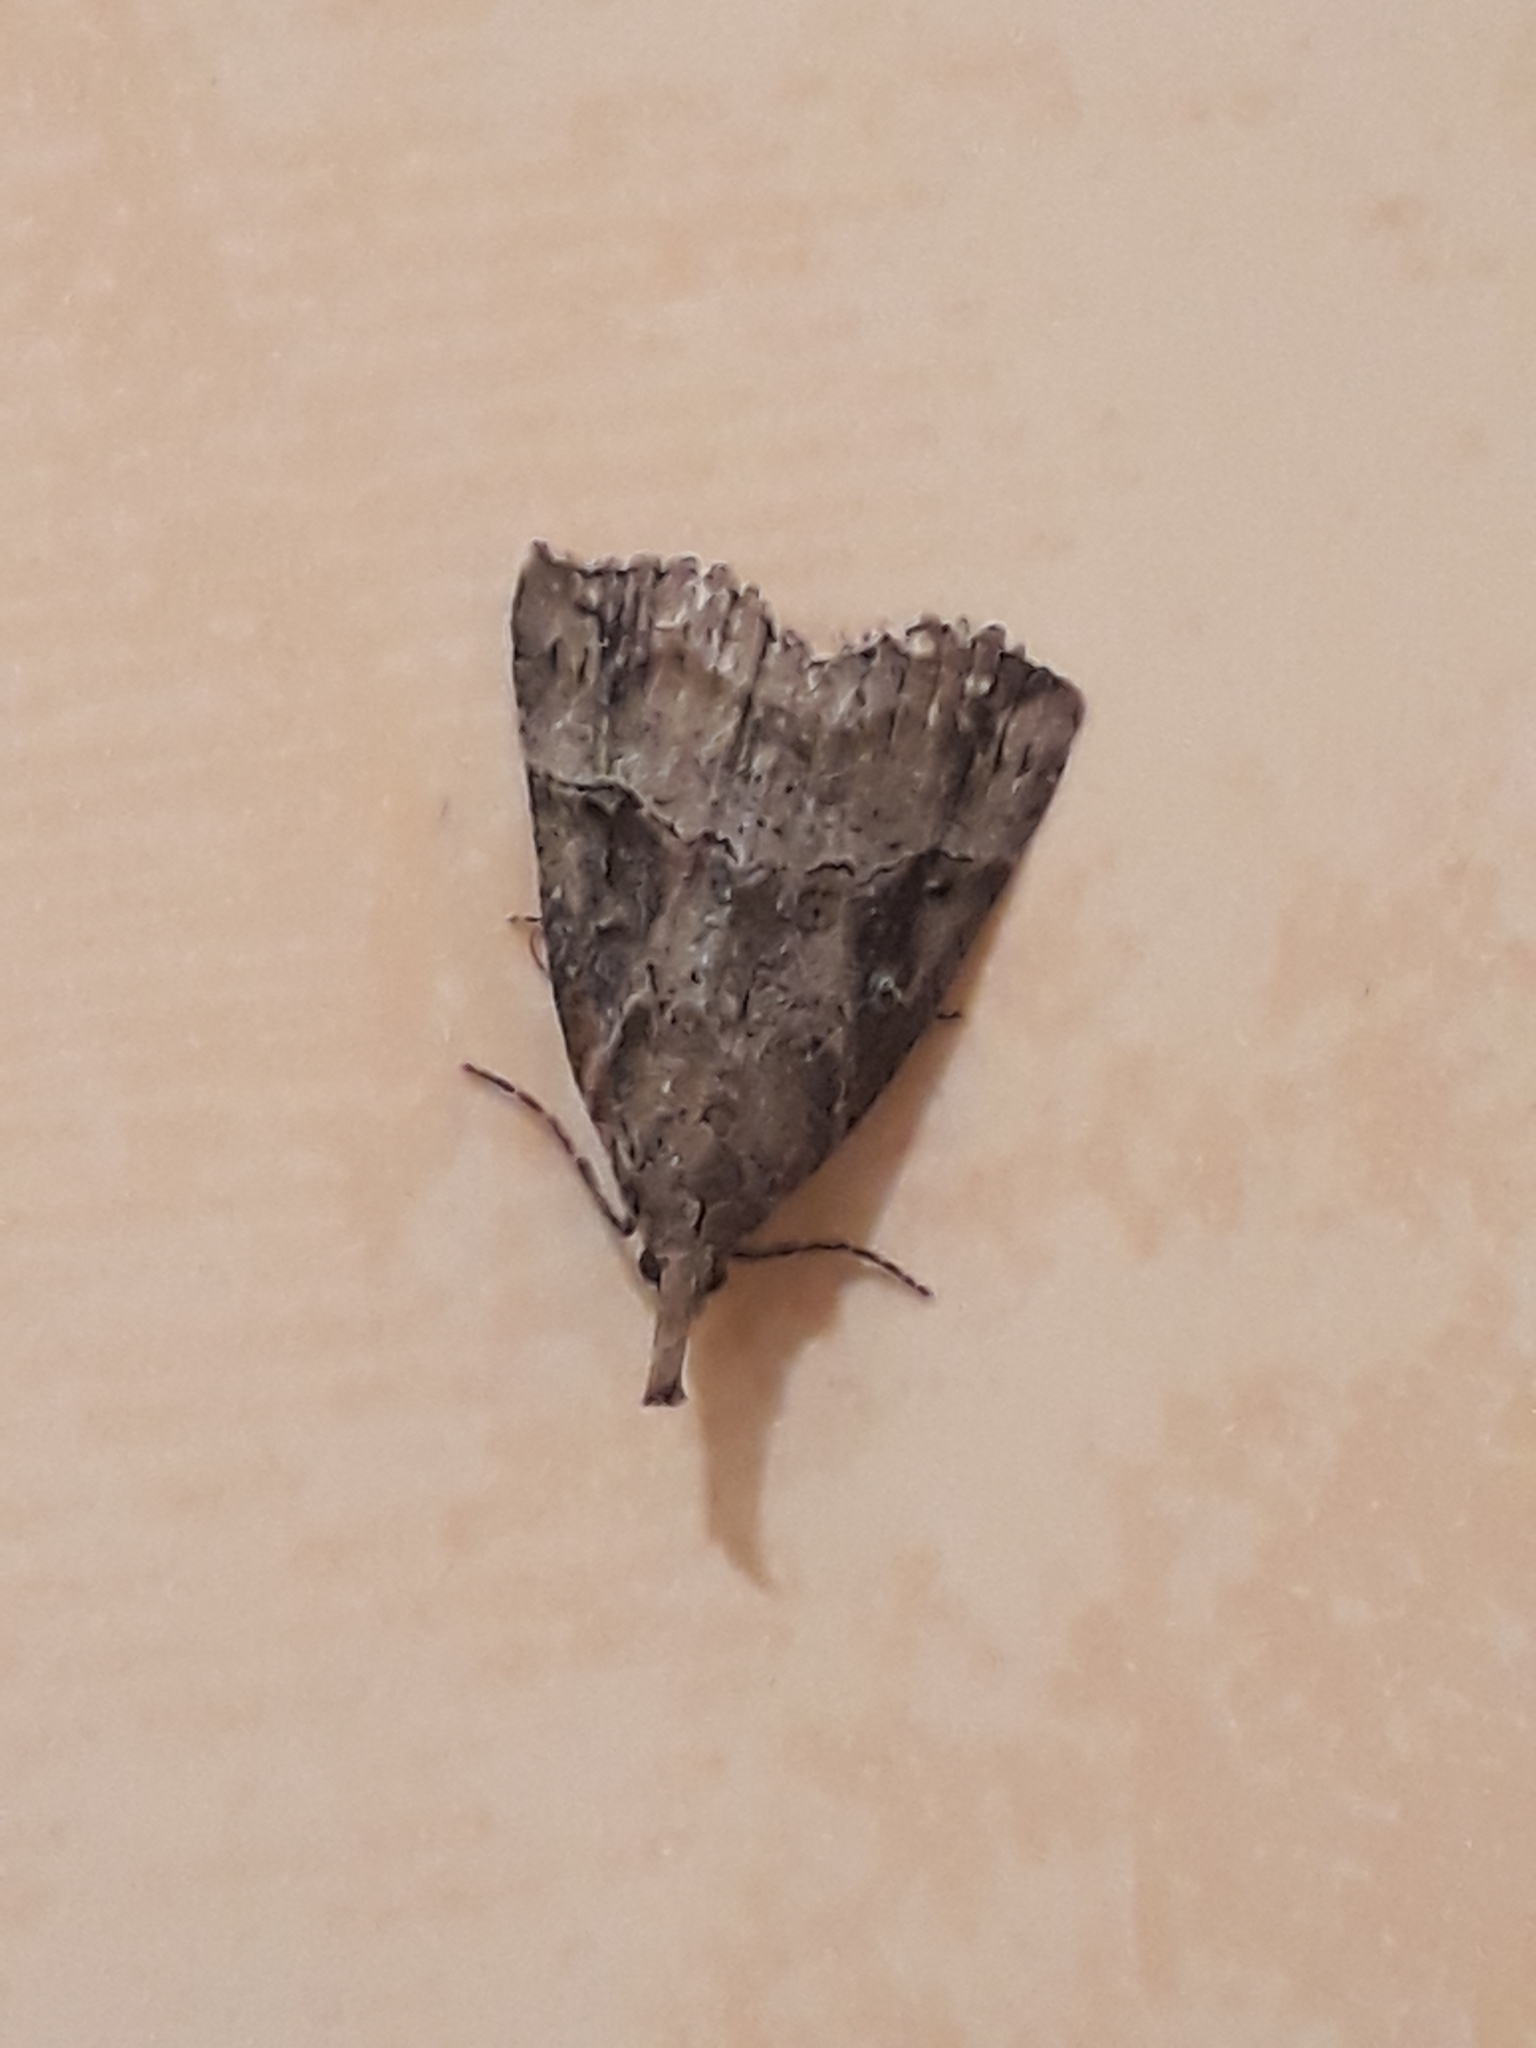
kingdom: Animalia
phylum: Arthropoda
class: Insecta
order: Lepidoptera
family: Erebidae
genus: Hypena
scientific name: Hypena rostralis
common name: Buttoned snout
